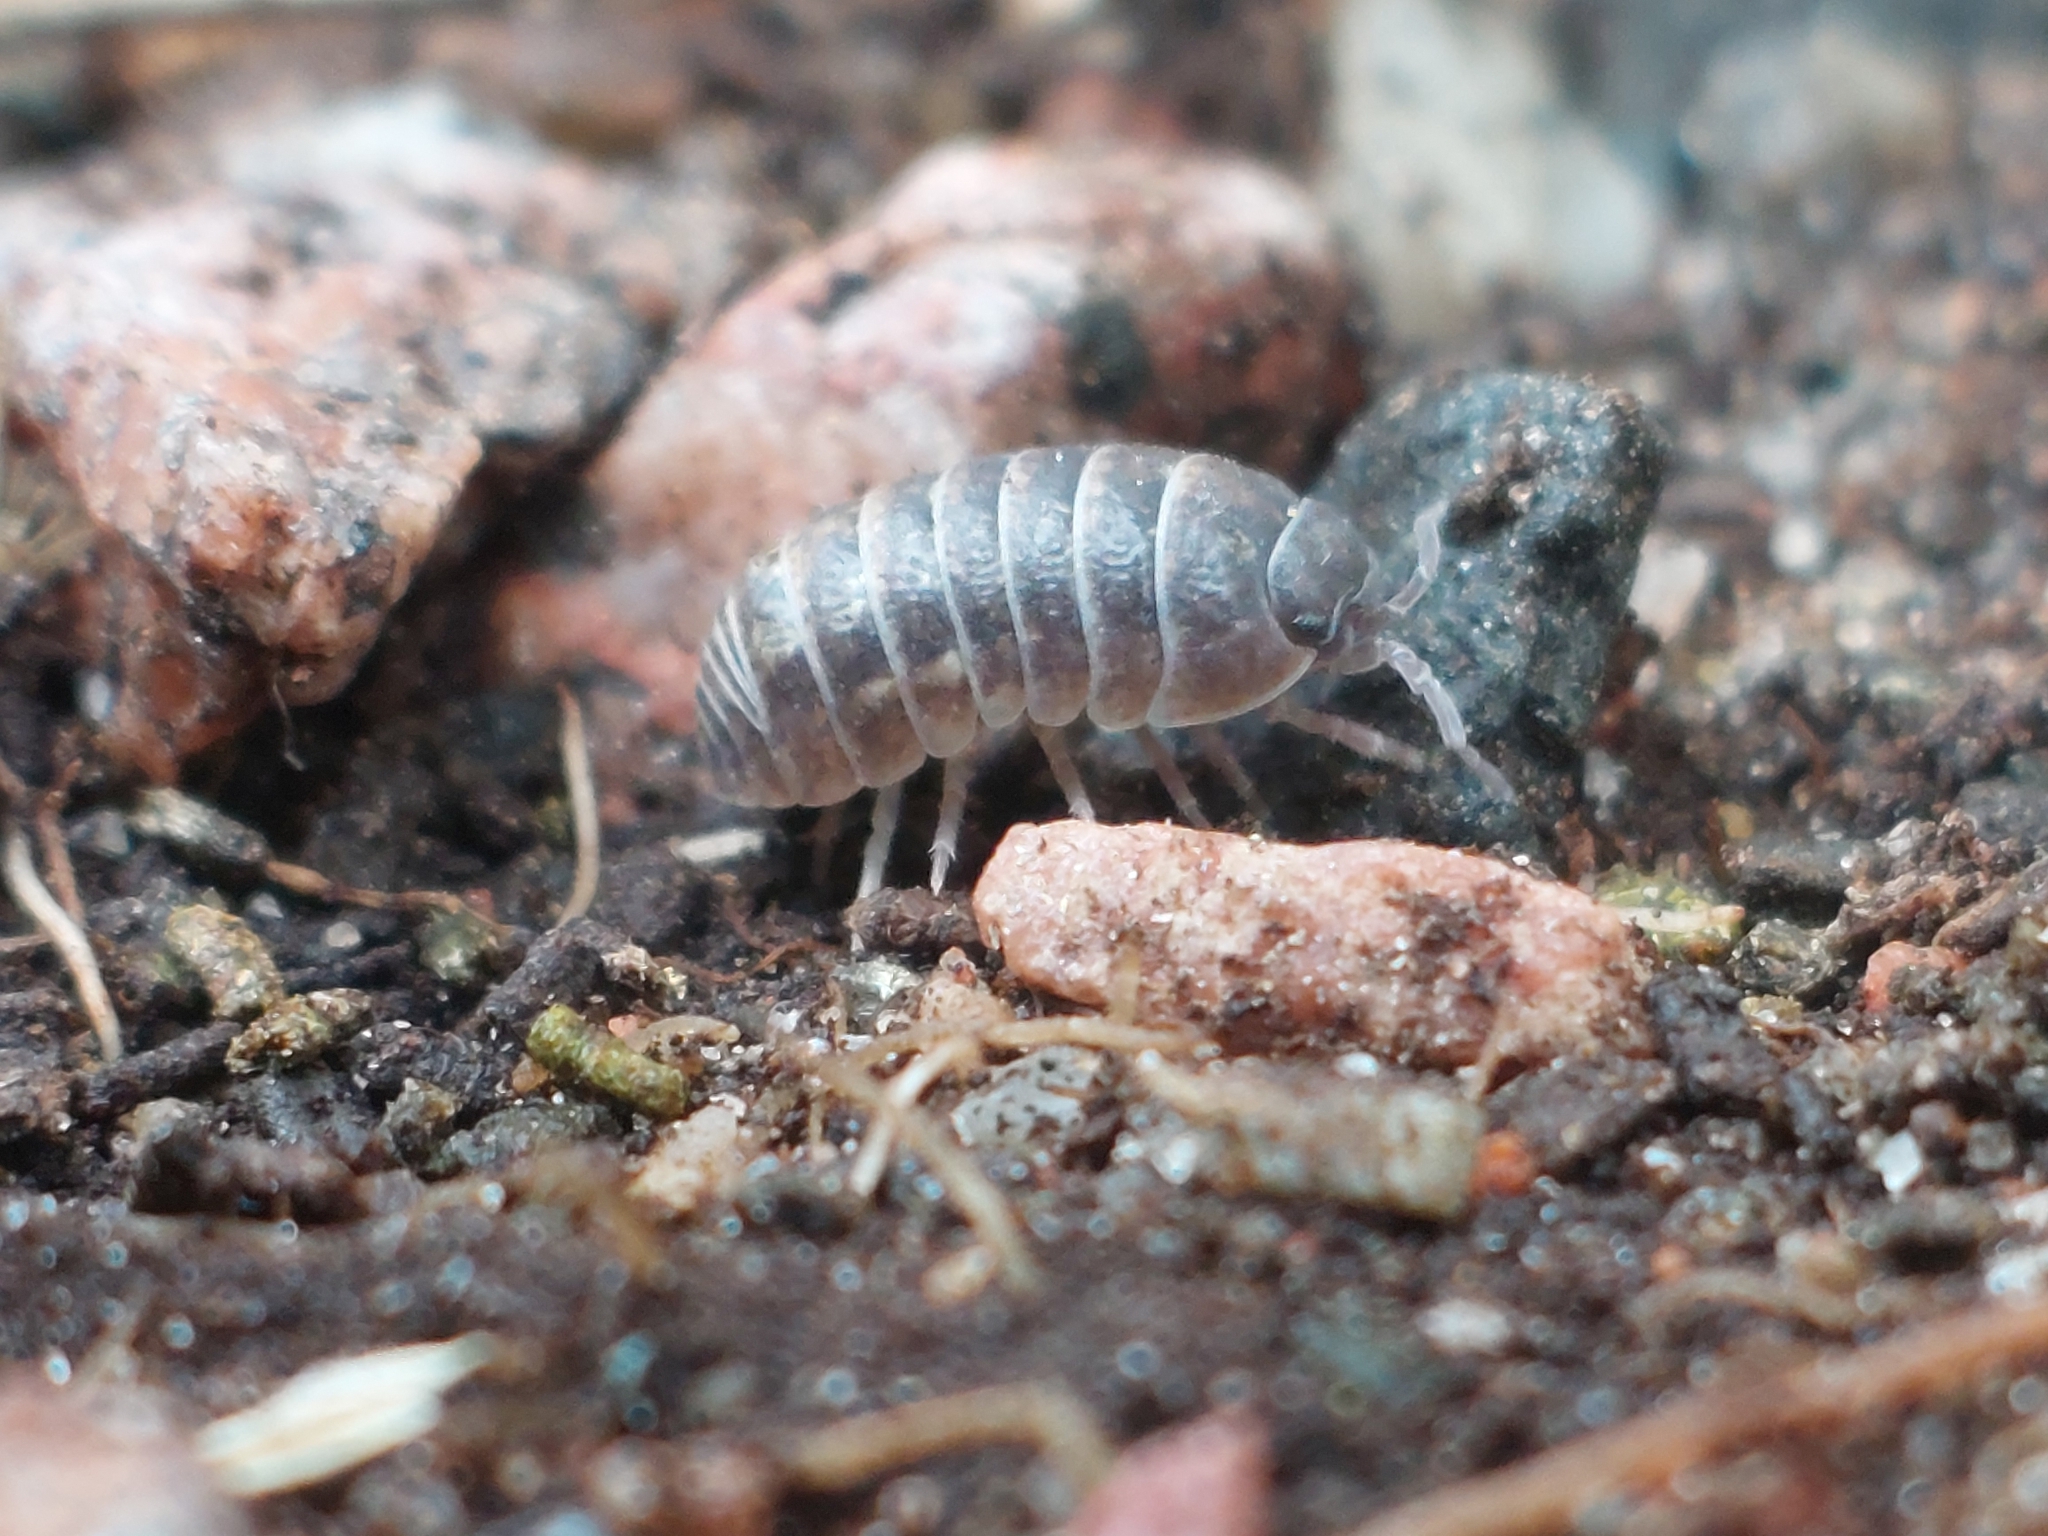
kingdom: Animalia
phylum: Arthropoda
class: Malacostraca
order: Isopoda
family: Armadillidiidae
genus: Armadillidium
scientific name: Armadillidium vulgare
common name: Common pill woodlouse
